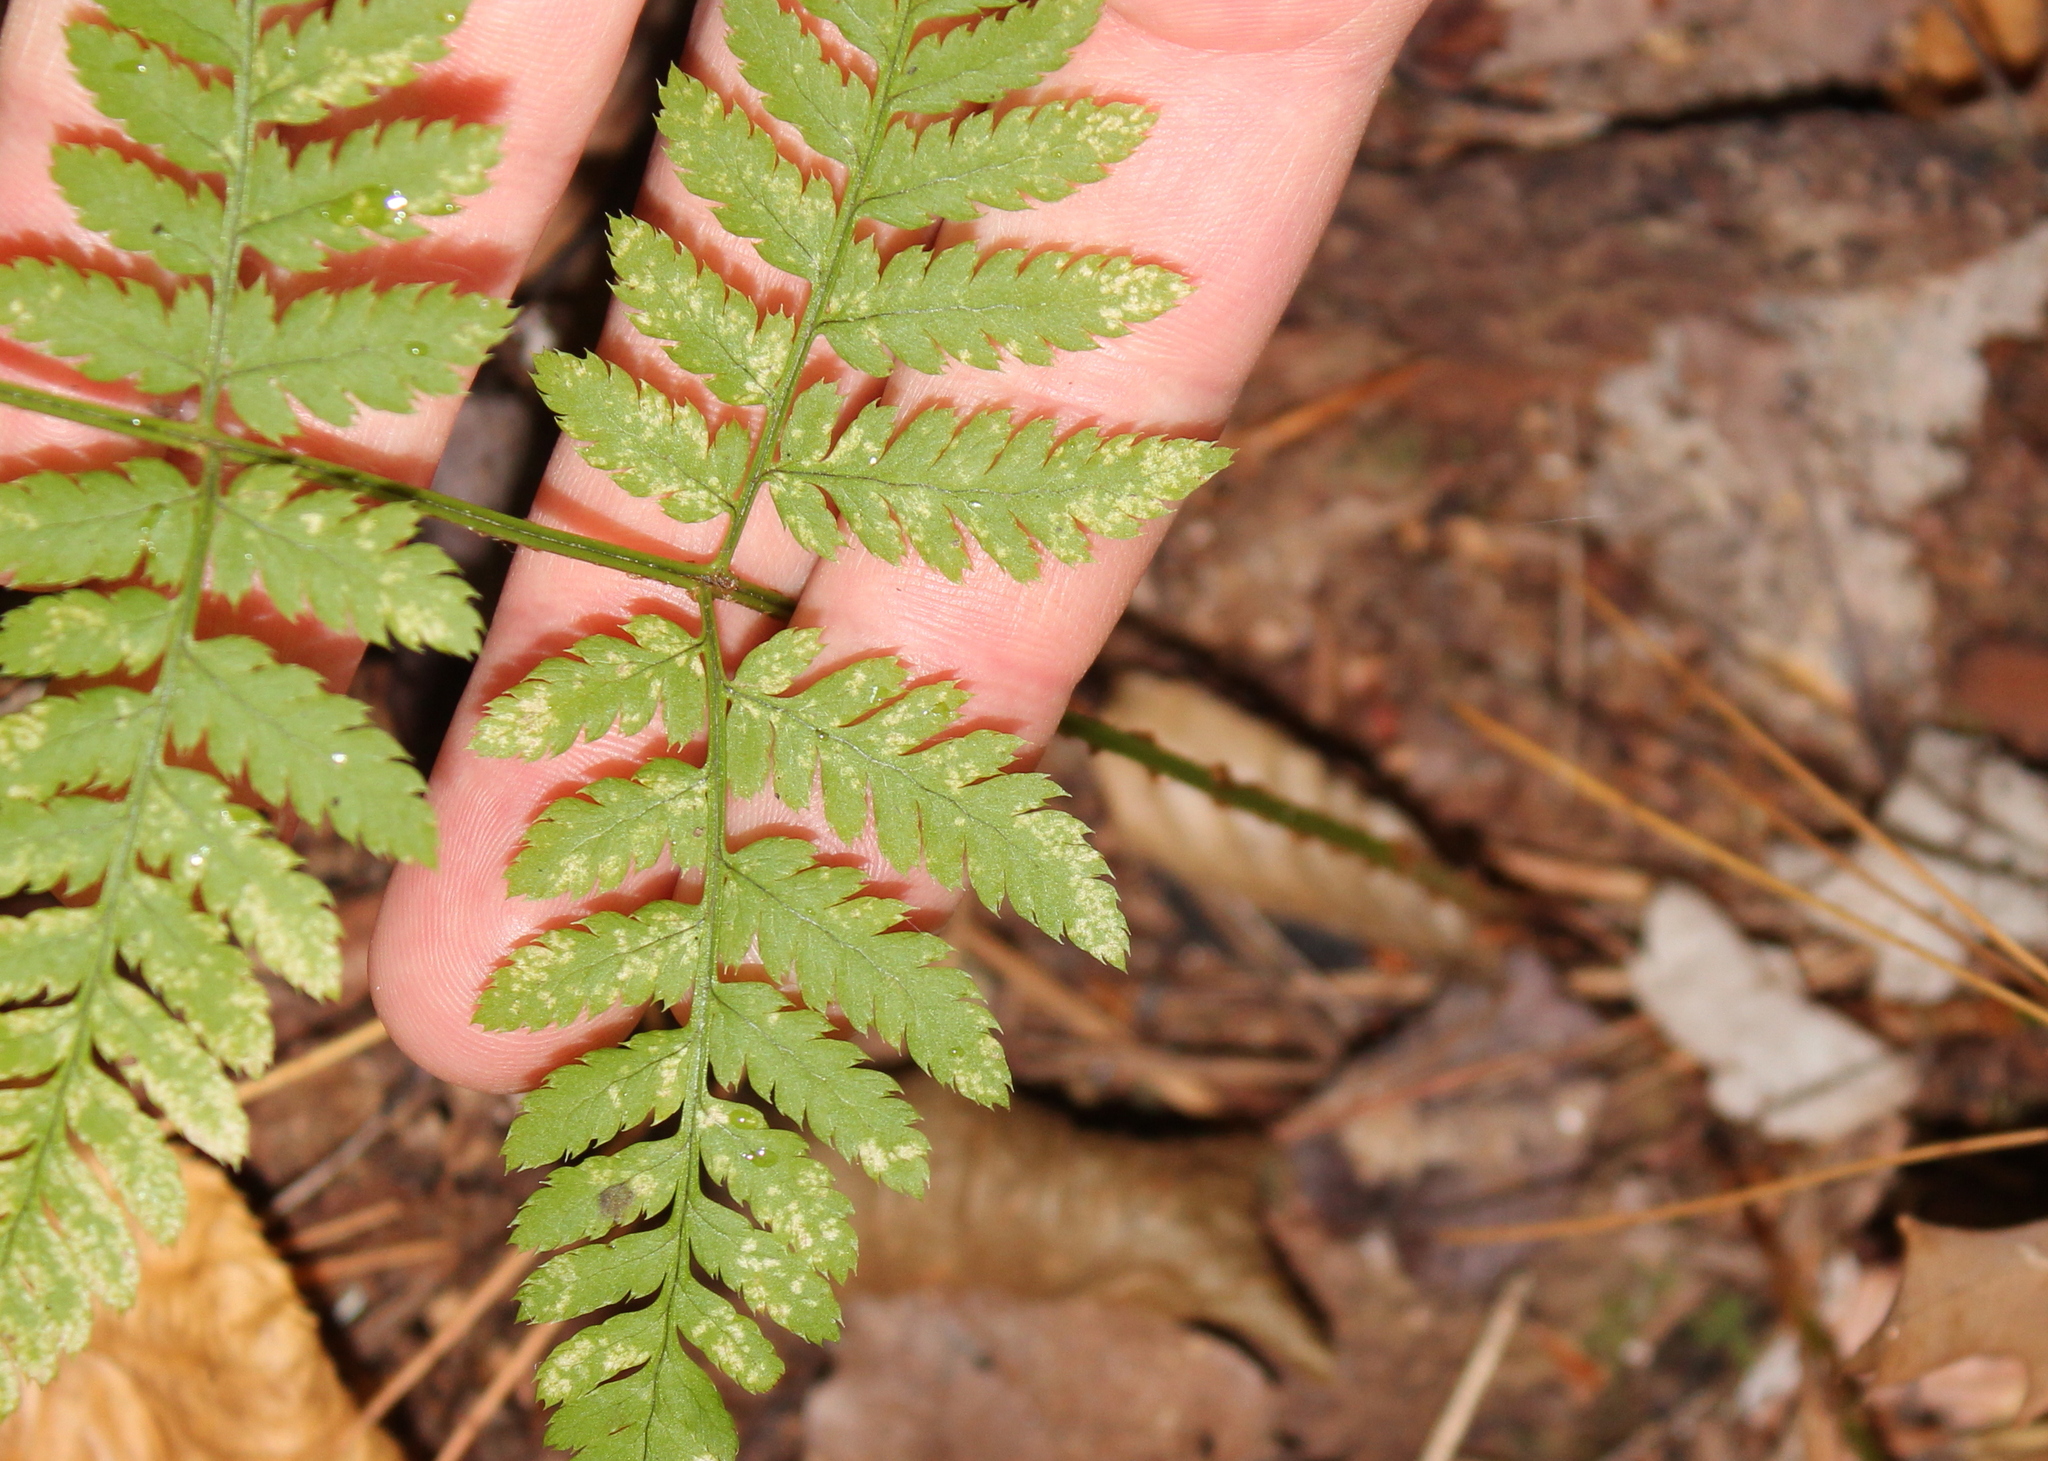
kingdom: Plantae
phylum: Tracheophyta
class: Polypodiopsida
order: Polypodiales
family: Dryopteridaceae
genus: Dryopteris
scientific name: Dryopteris carthusiana
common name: Narrow buckler-fern
